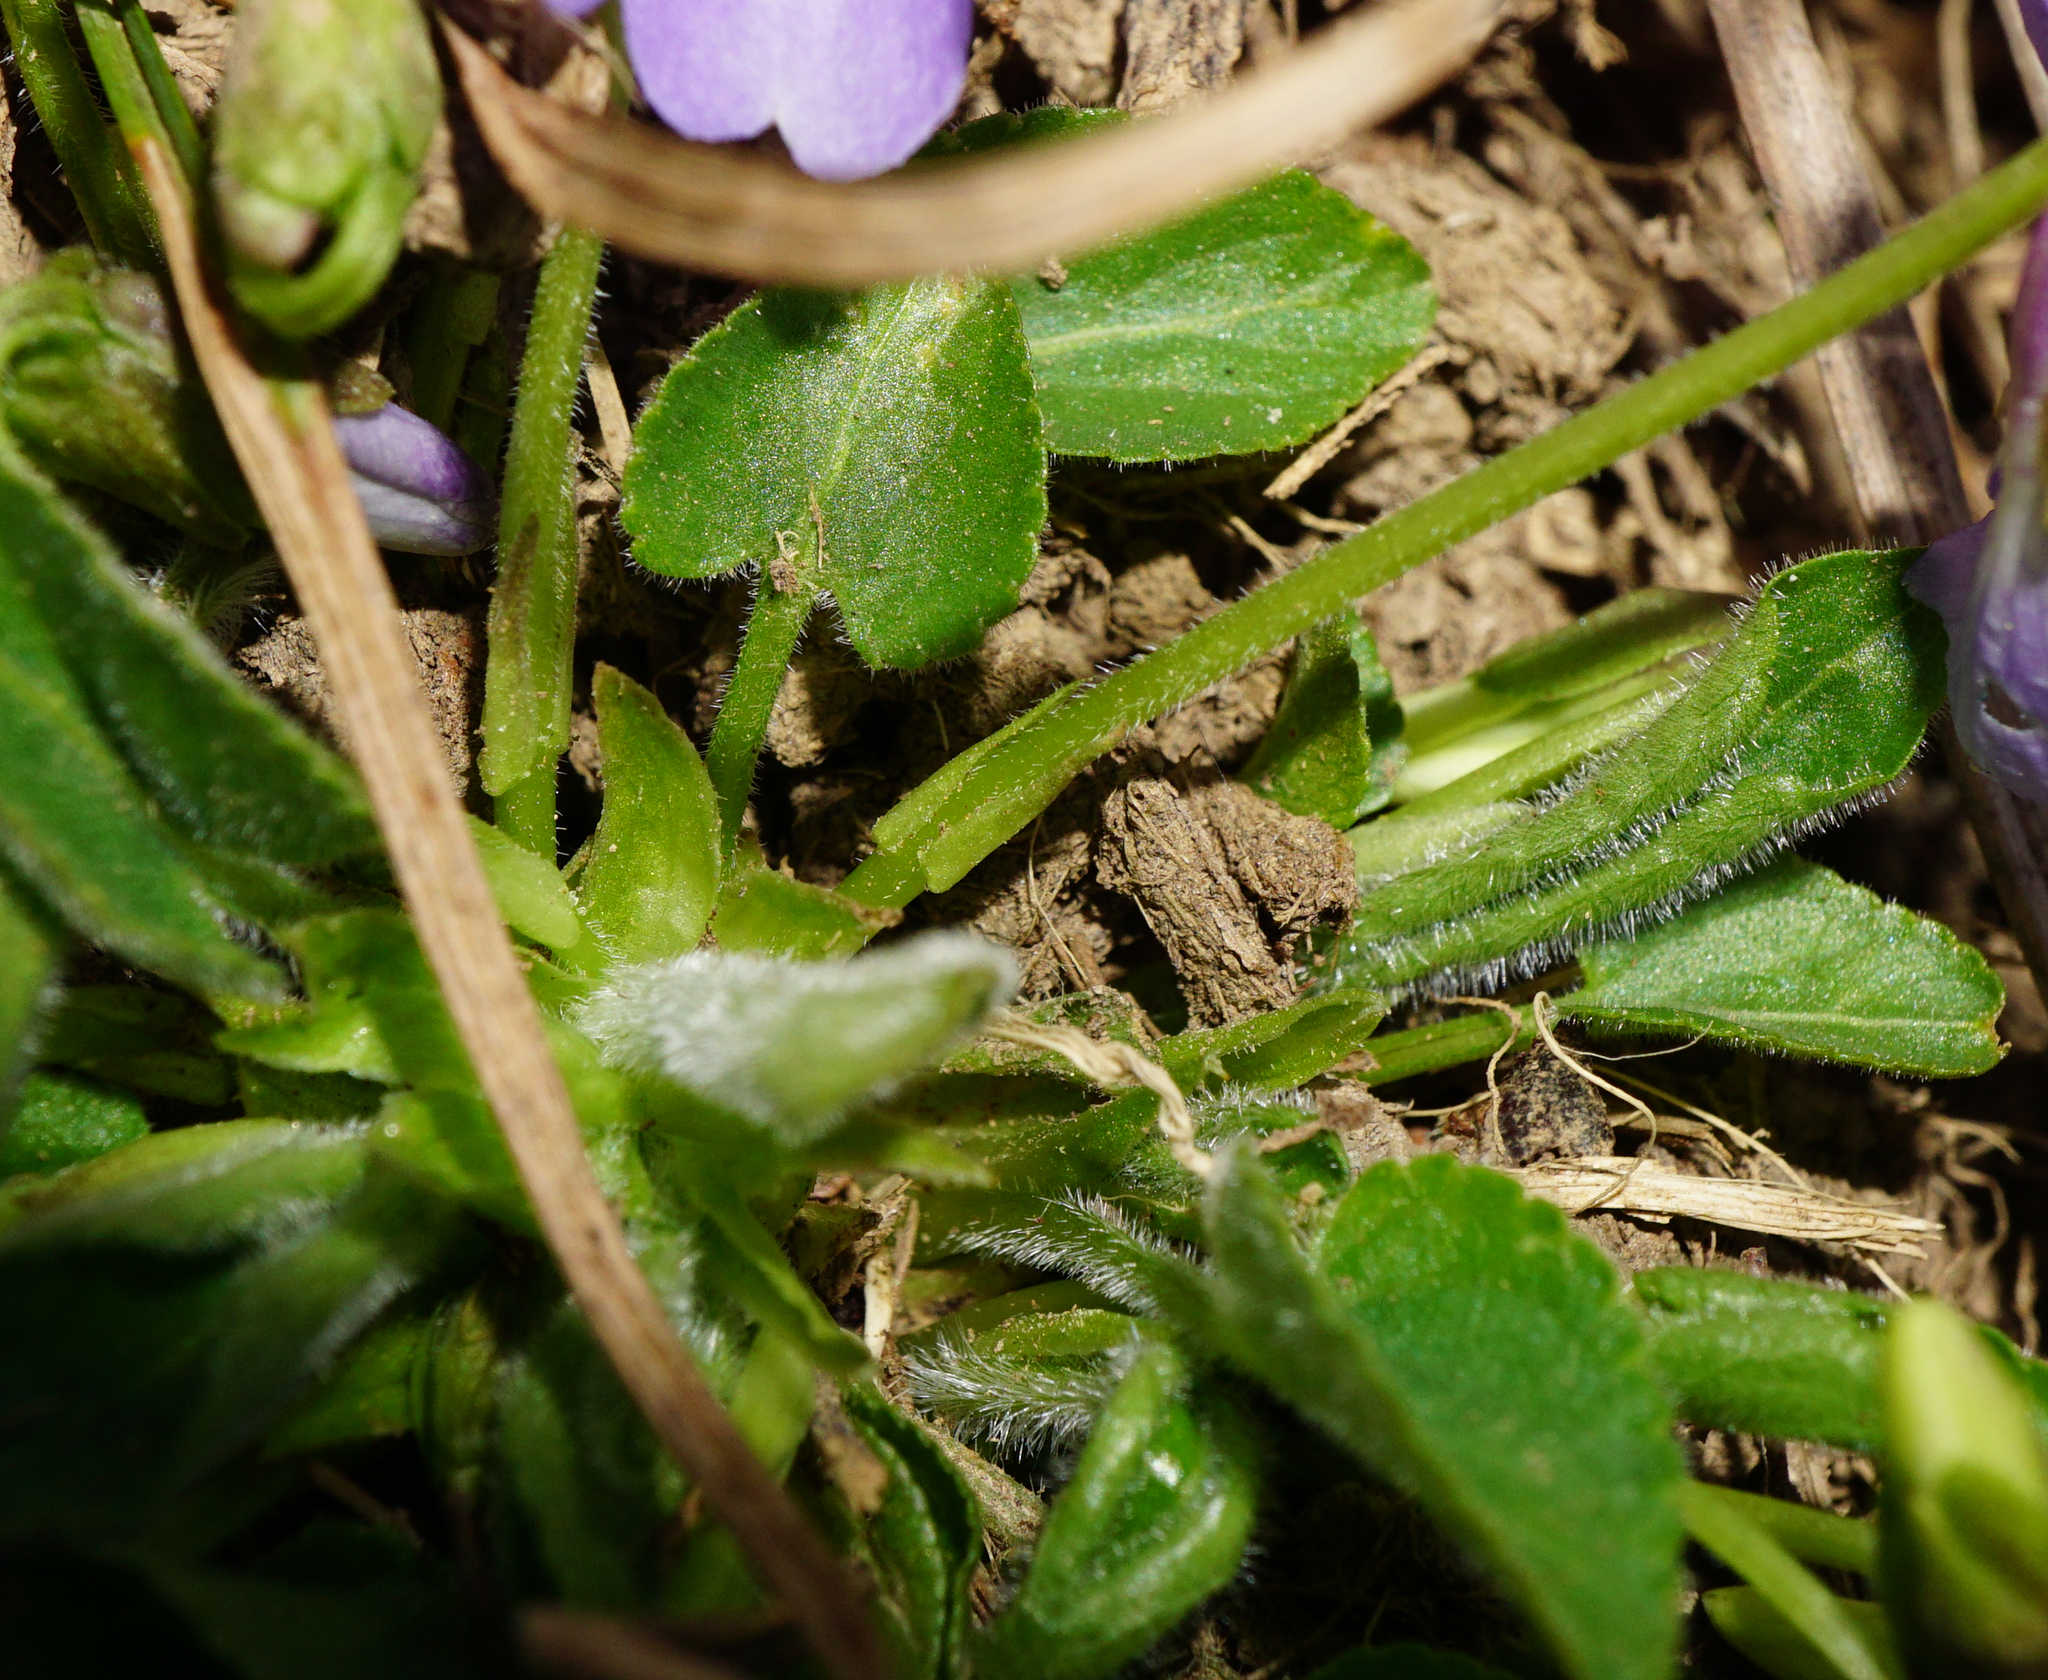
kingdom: Plantae
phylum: Tracheophyta
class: Magnoliopsida
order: Malpighiales
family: Violaceae
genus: Viola
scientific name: Viola hirta
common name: Hairy violet
